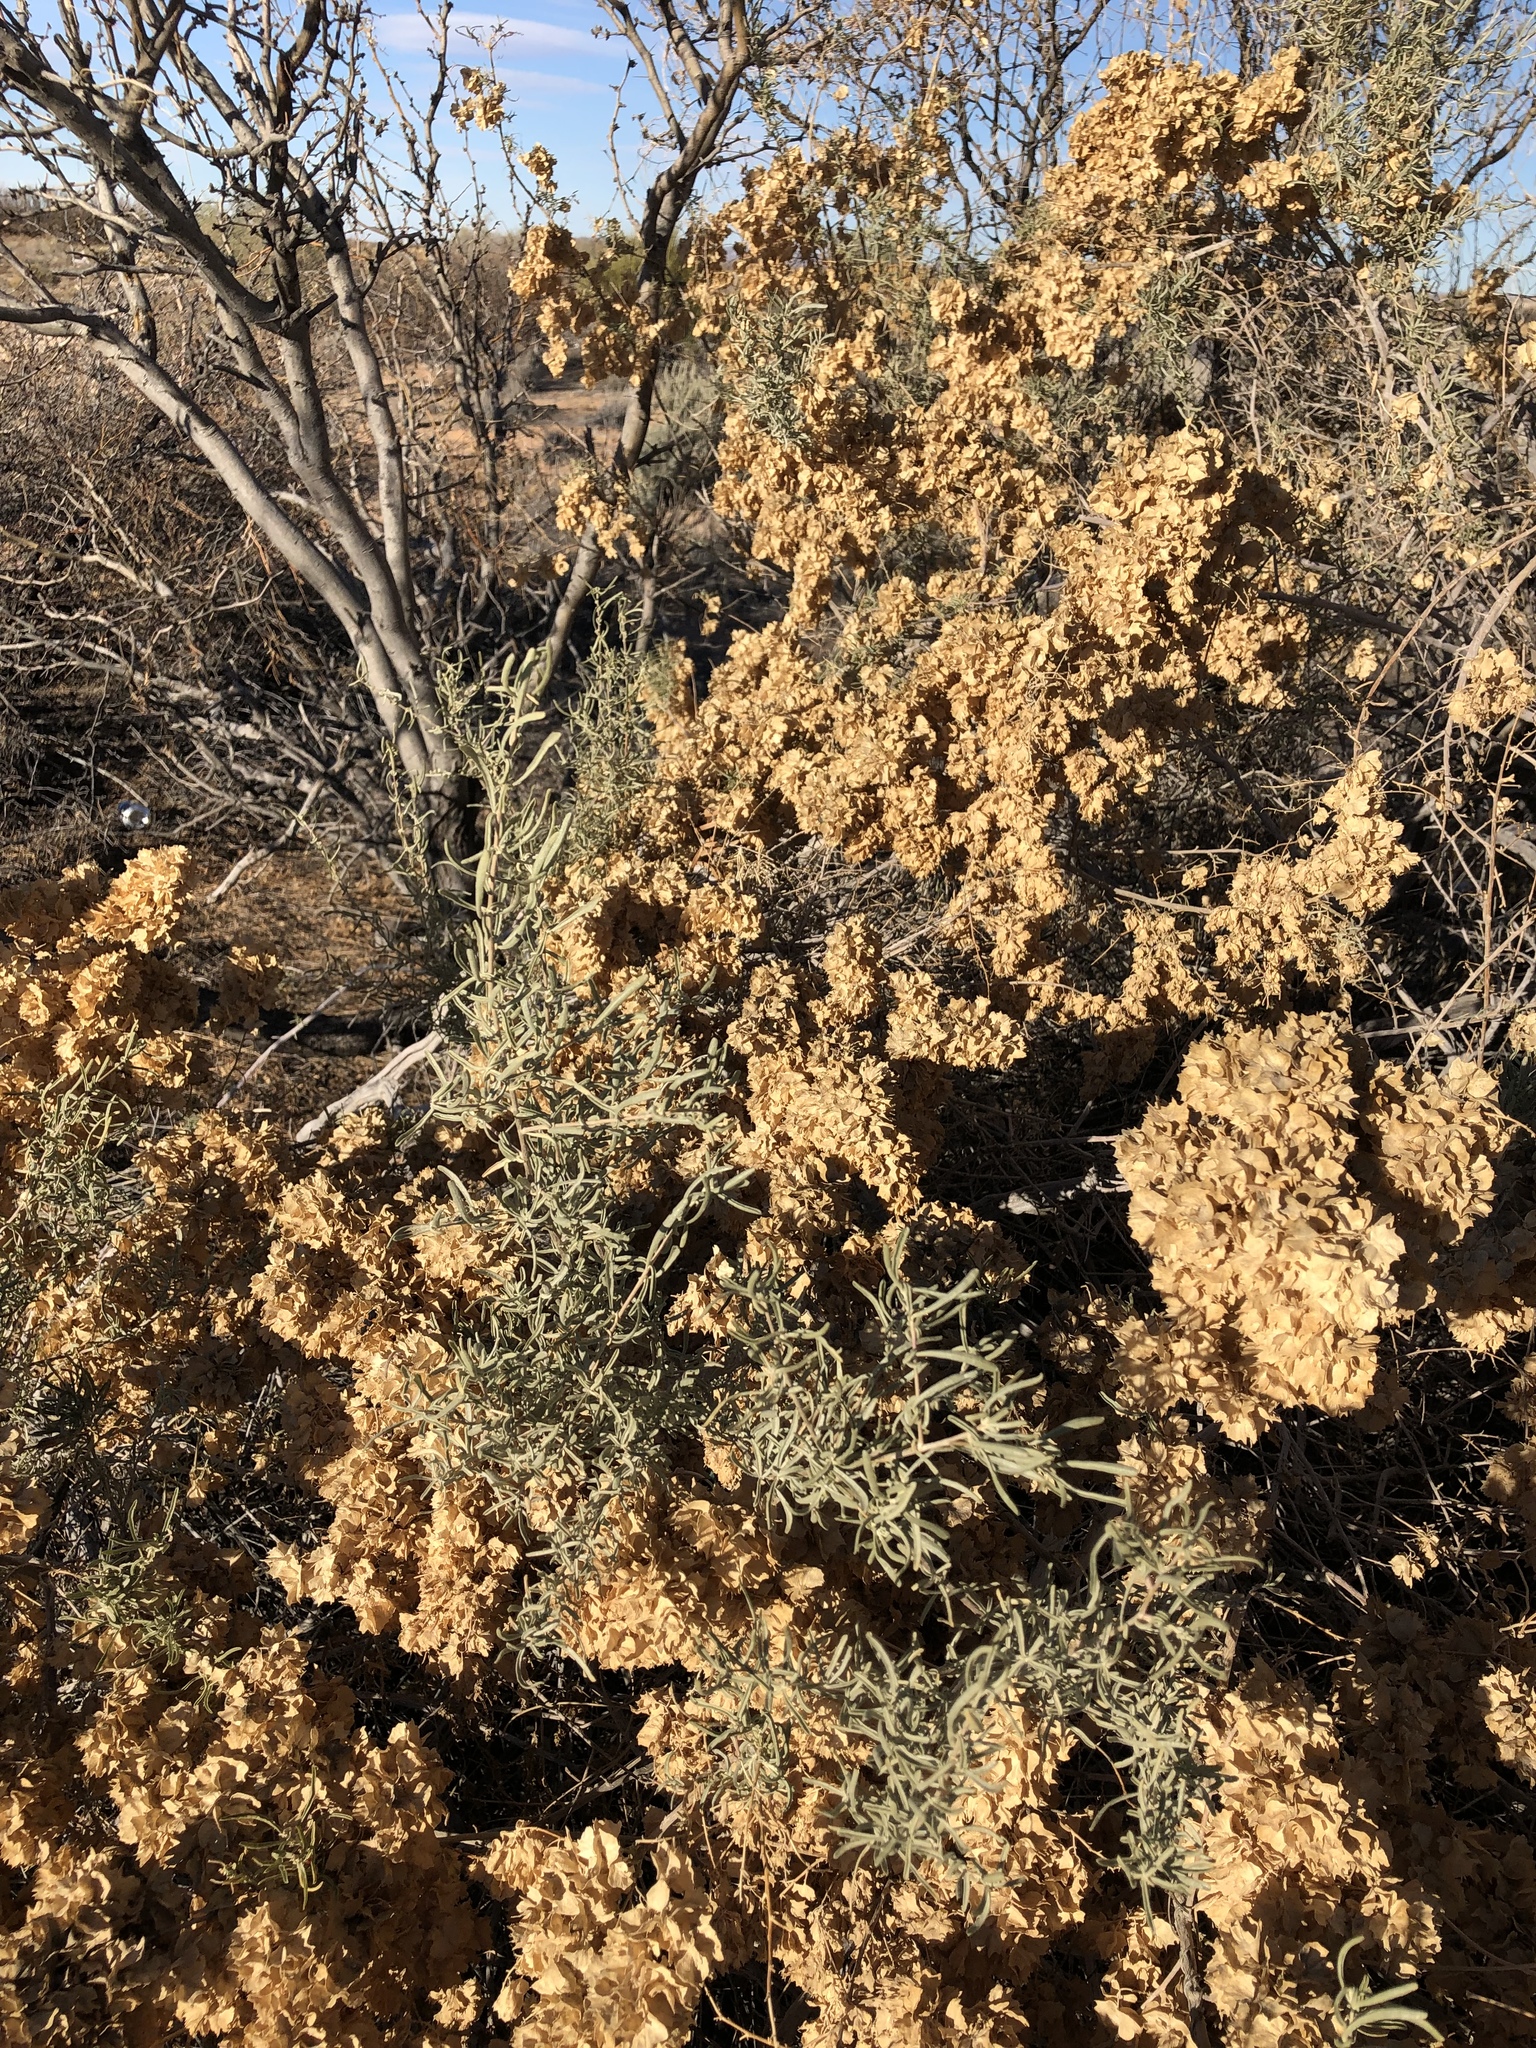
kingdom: Plantae
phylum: Tracheophyta
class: Magnoliopsida
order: Caryophyllales
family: Amaranthaceae
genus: Atriplex
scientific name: Atriplex canescens
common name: Four-wing saltbush
